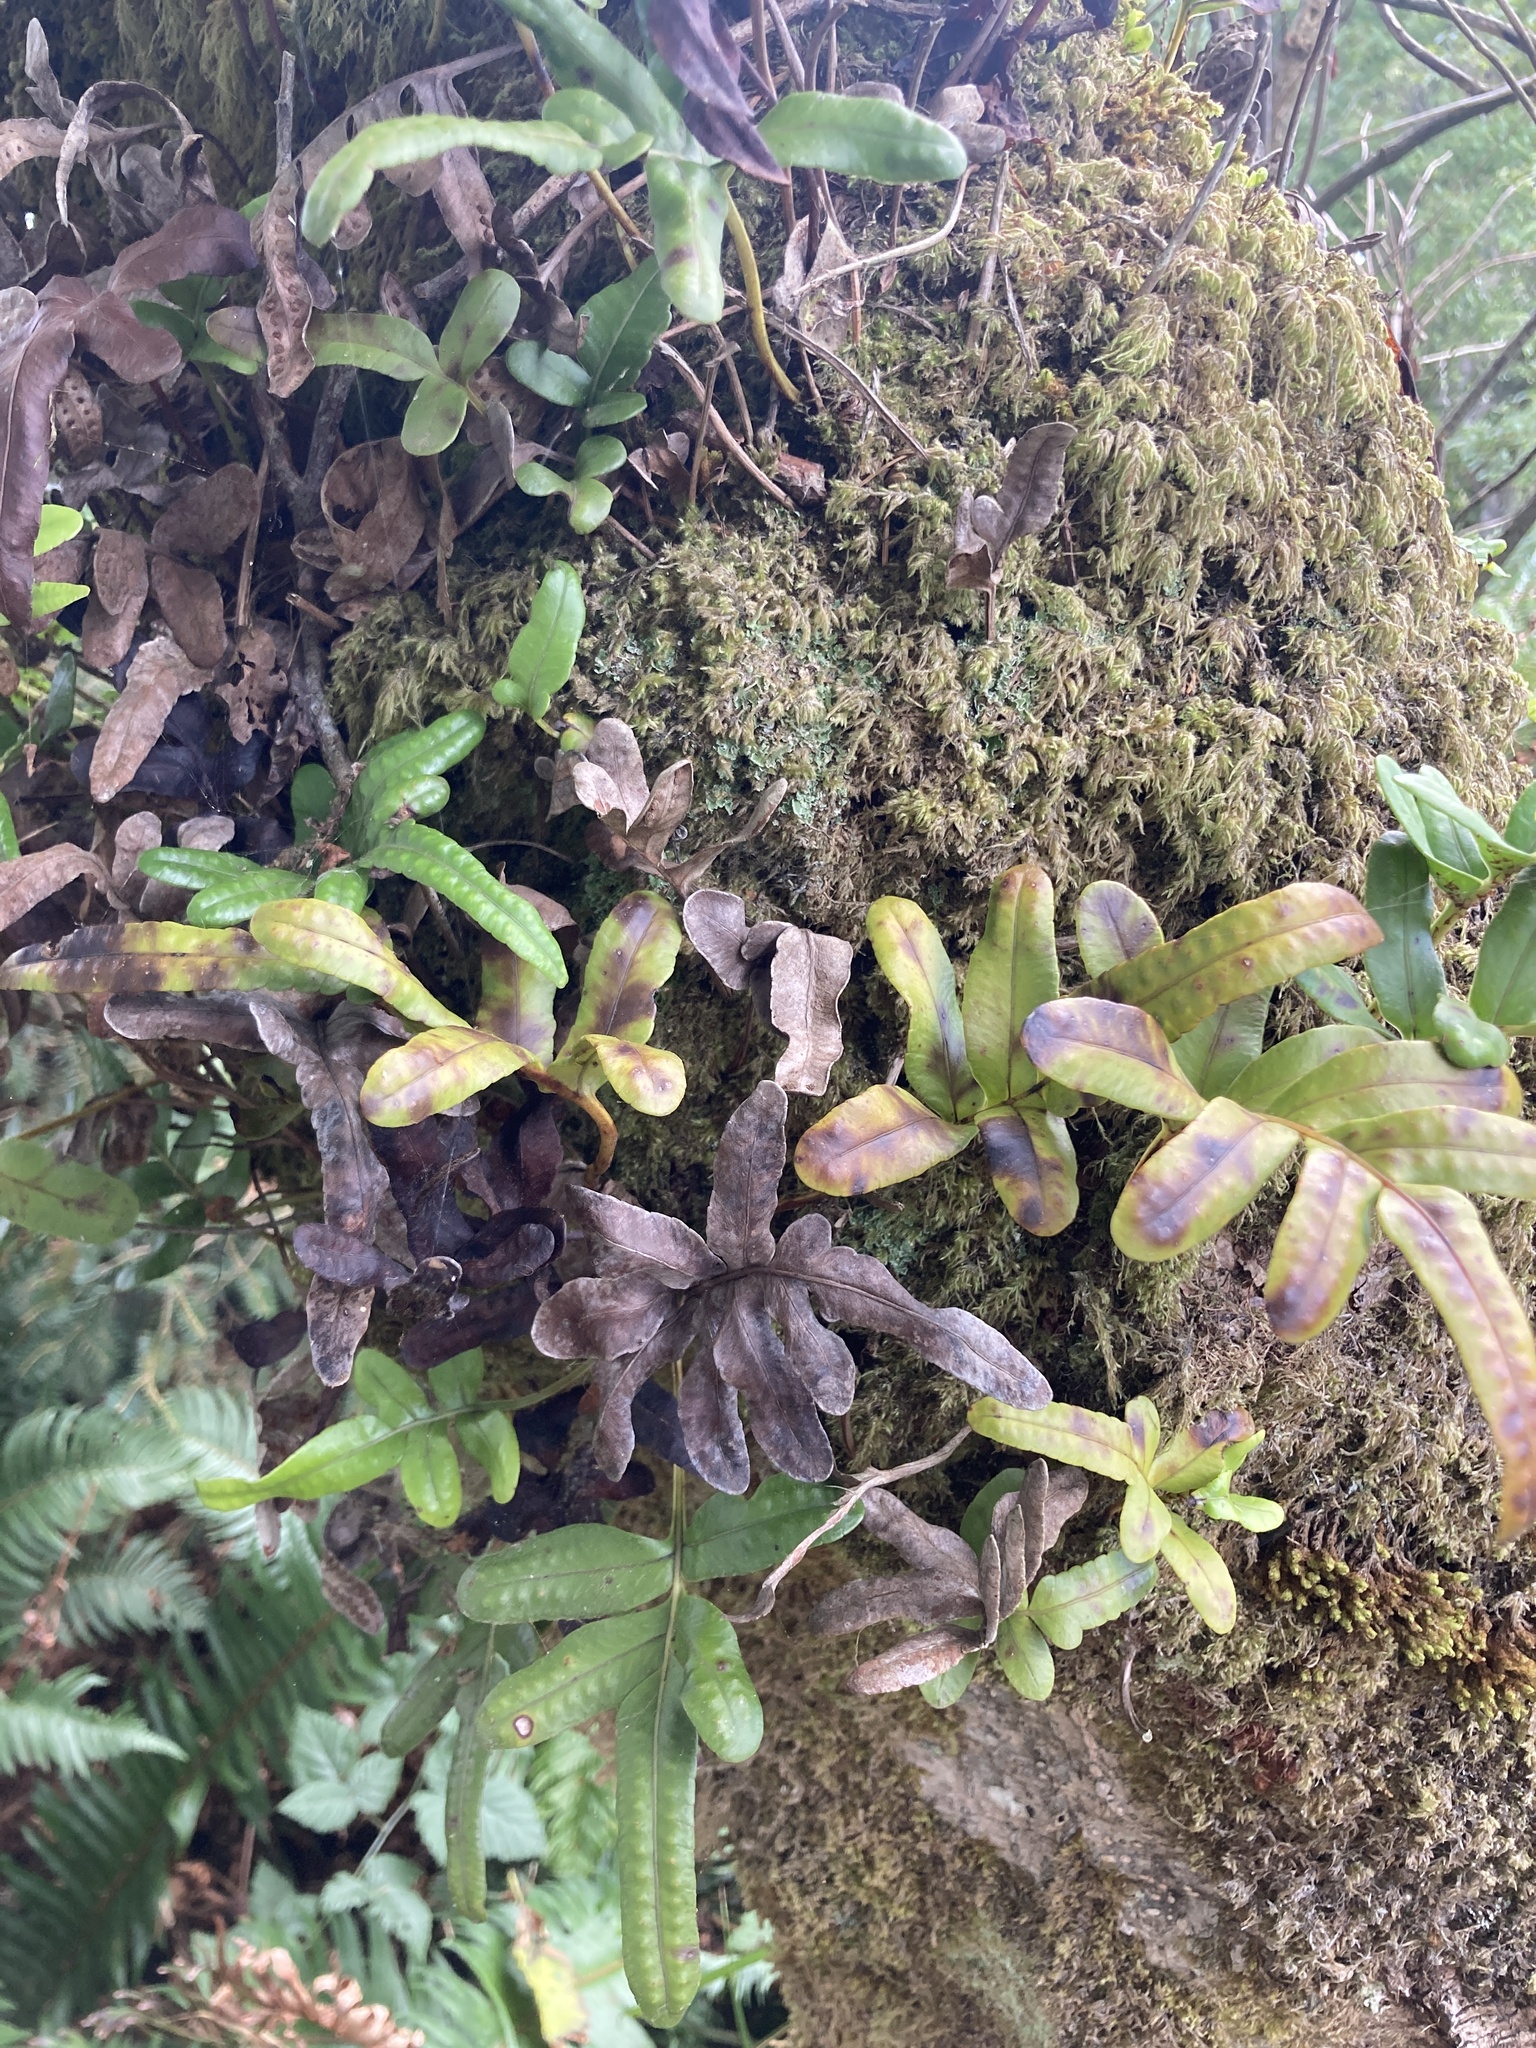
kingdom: Plantae
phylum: Tracheophyta
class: Polypodiopsida
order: Polypodiales
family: Polypodiaceae
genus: Polypodium
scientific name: Polypodium scouleri
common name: Scouler's polypody
